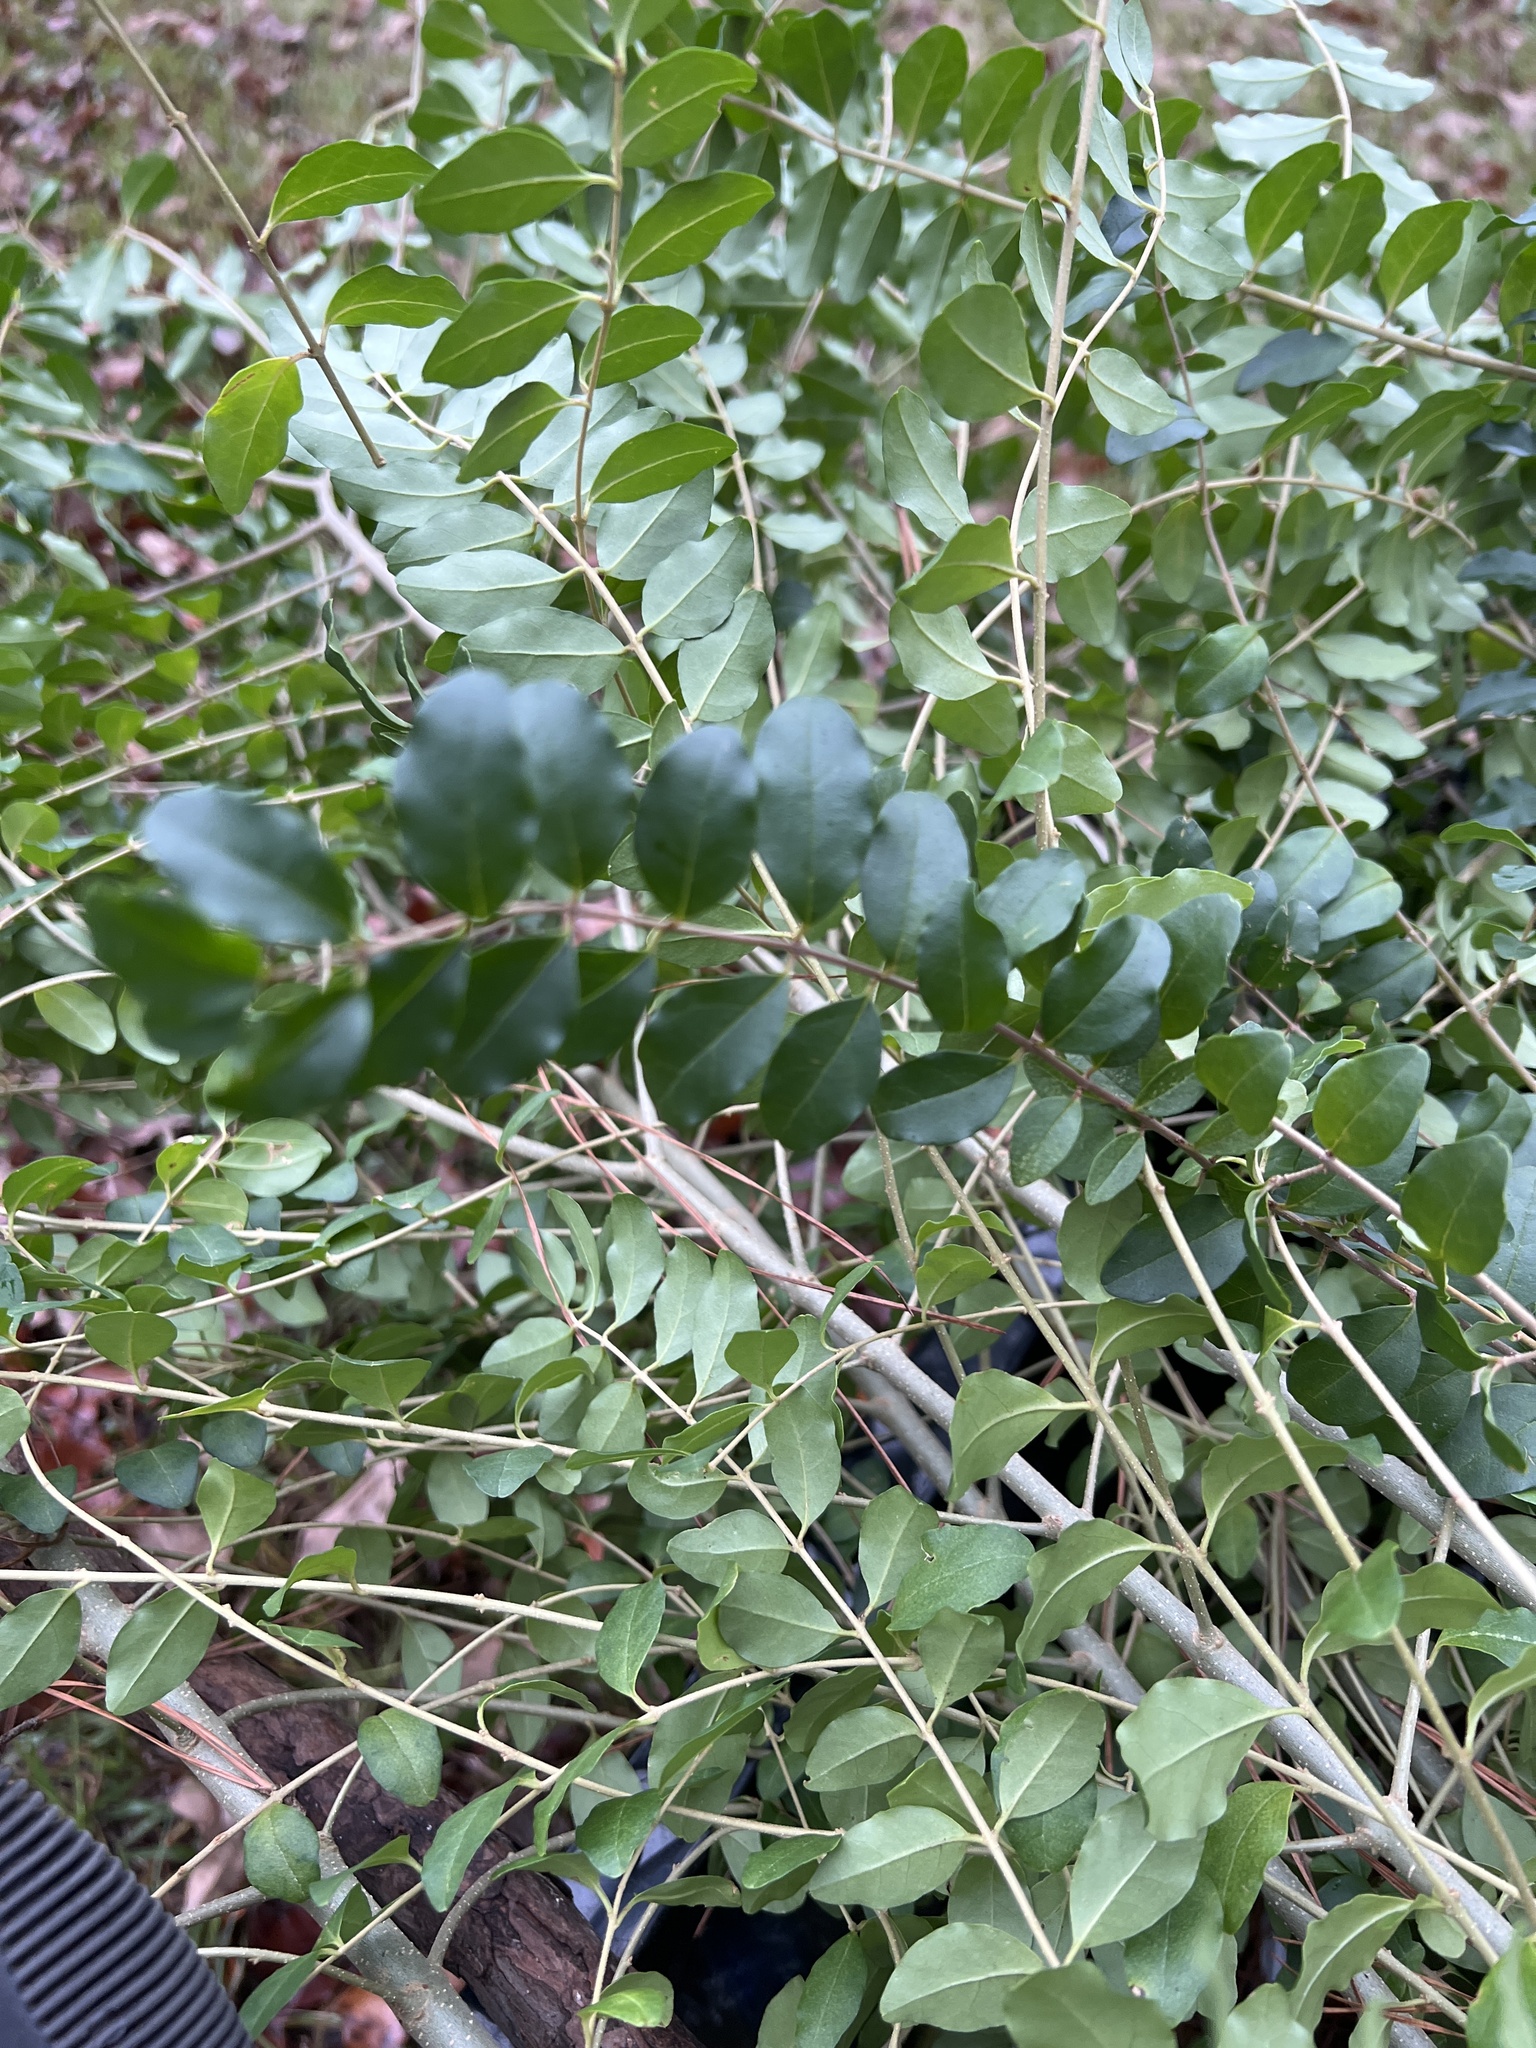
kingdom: Plantae
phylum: Tracheophyta
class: Magnoliopsida
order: Lamiales
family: Oleaceae
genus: Ligustrum
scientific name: Ligustrum sinense
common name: Chinese privet
